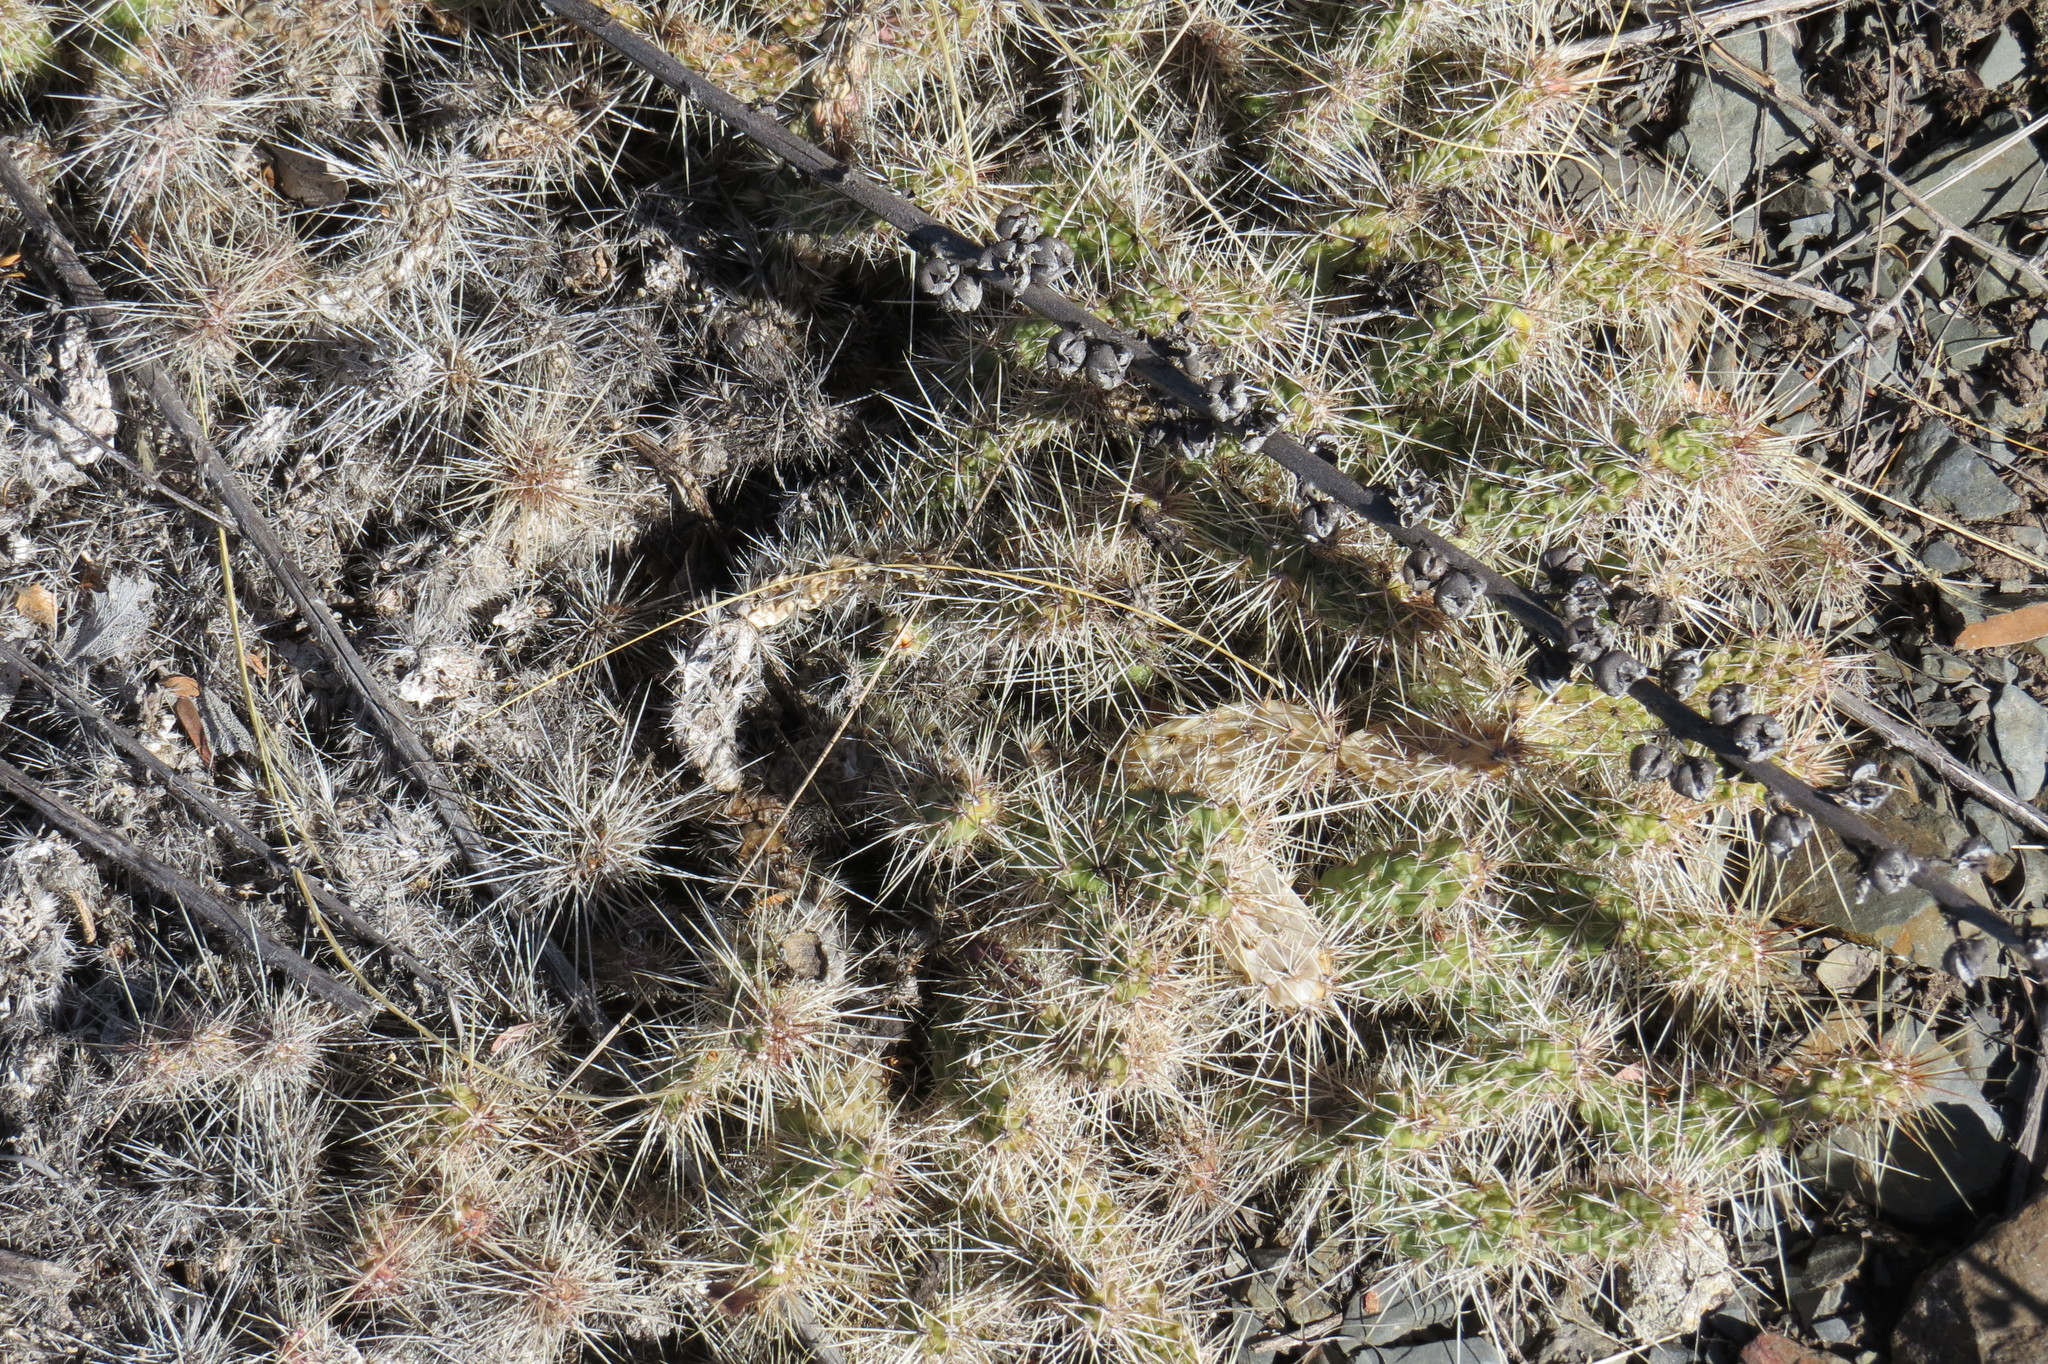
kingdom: Plantae
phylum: Tracheophyta
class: Magnoliopsida
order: Caryophyllales
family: Cactaceae
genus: Airampoa
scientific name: Airampoa corrugata
